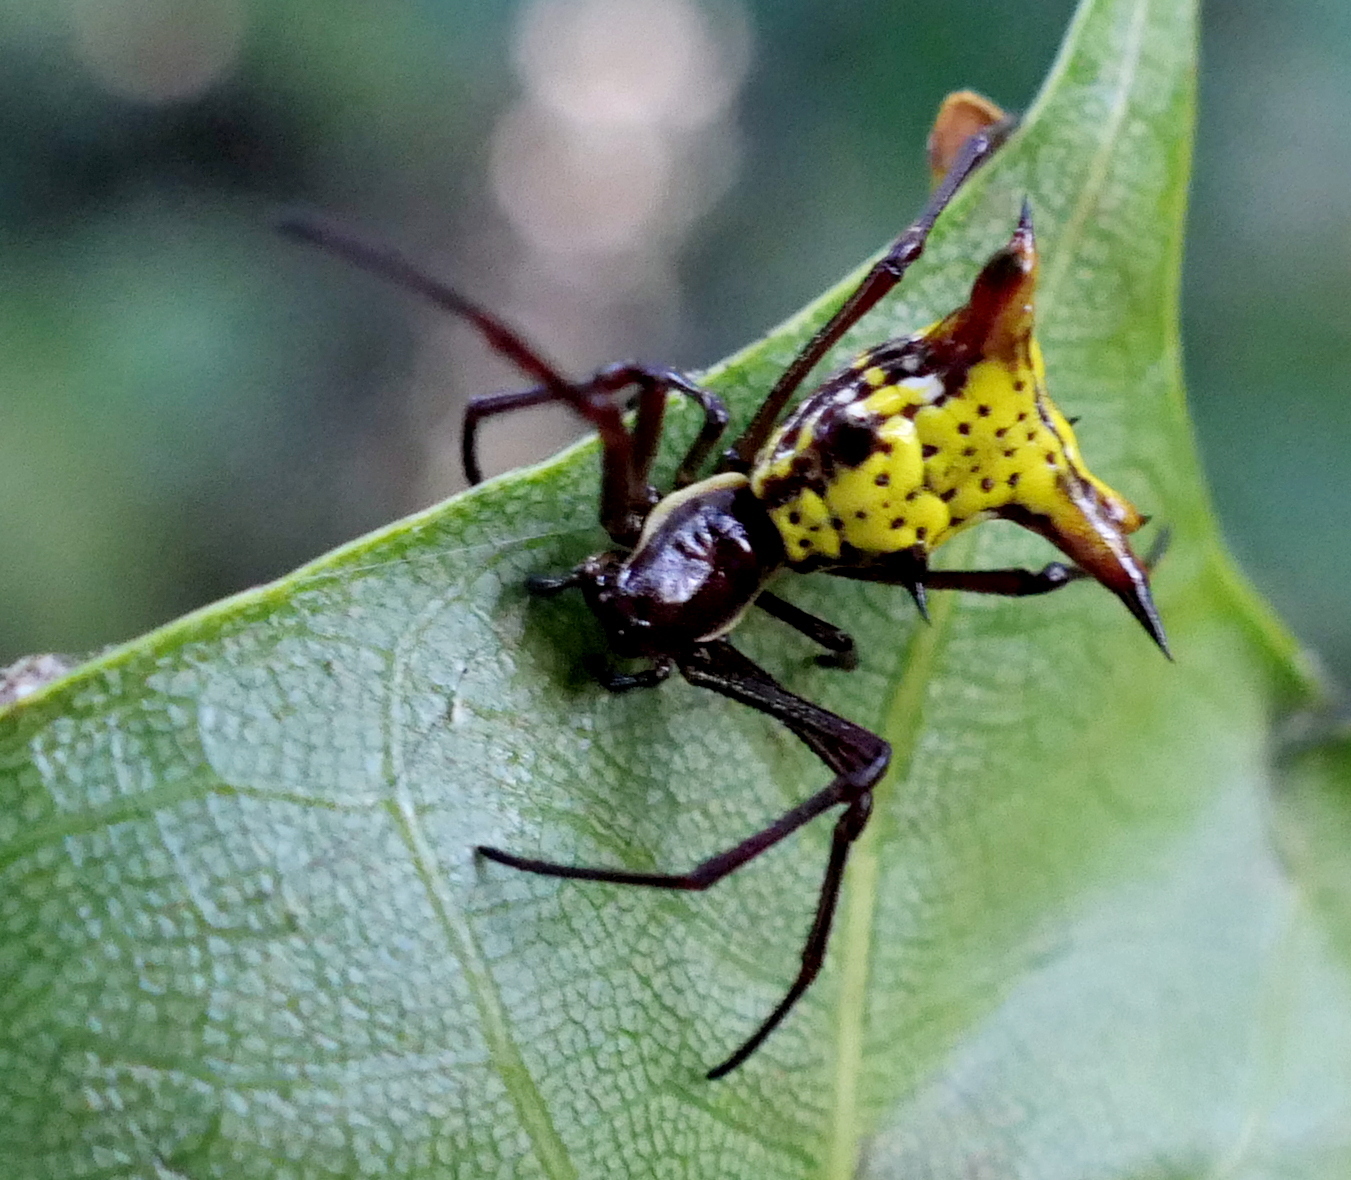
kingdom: Animalia
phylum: Arthropoda
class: Arachnida
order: Araneae
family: Araneidae
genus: Micrathena
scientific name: Micrathena fissispina
